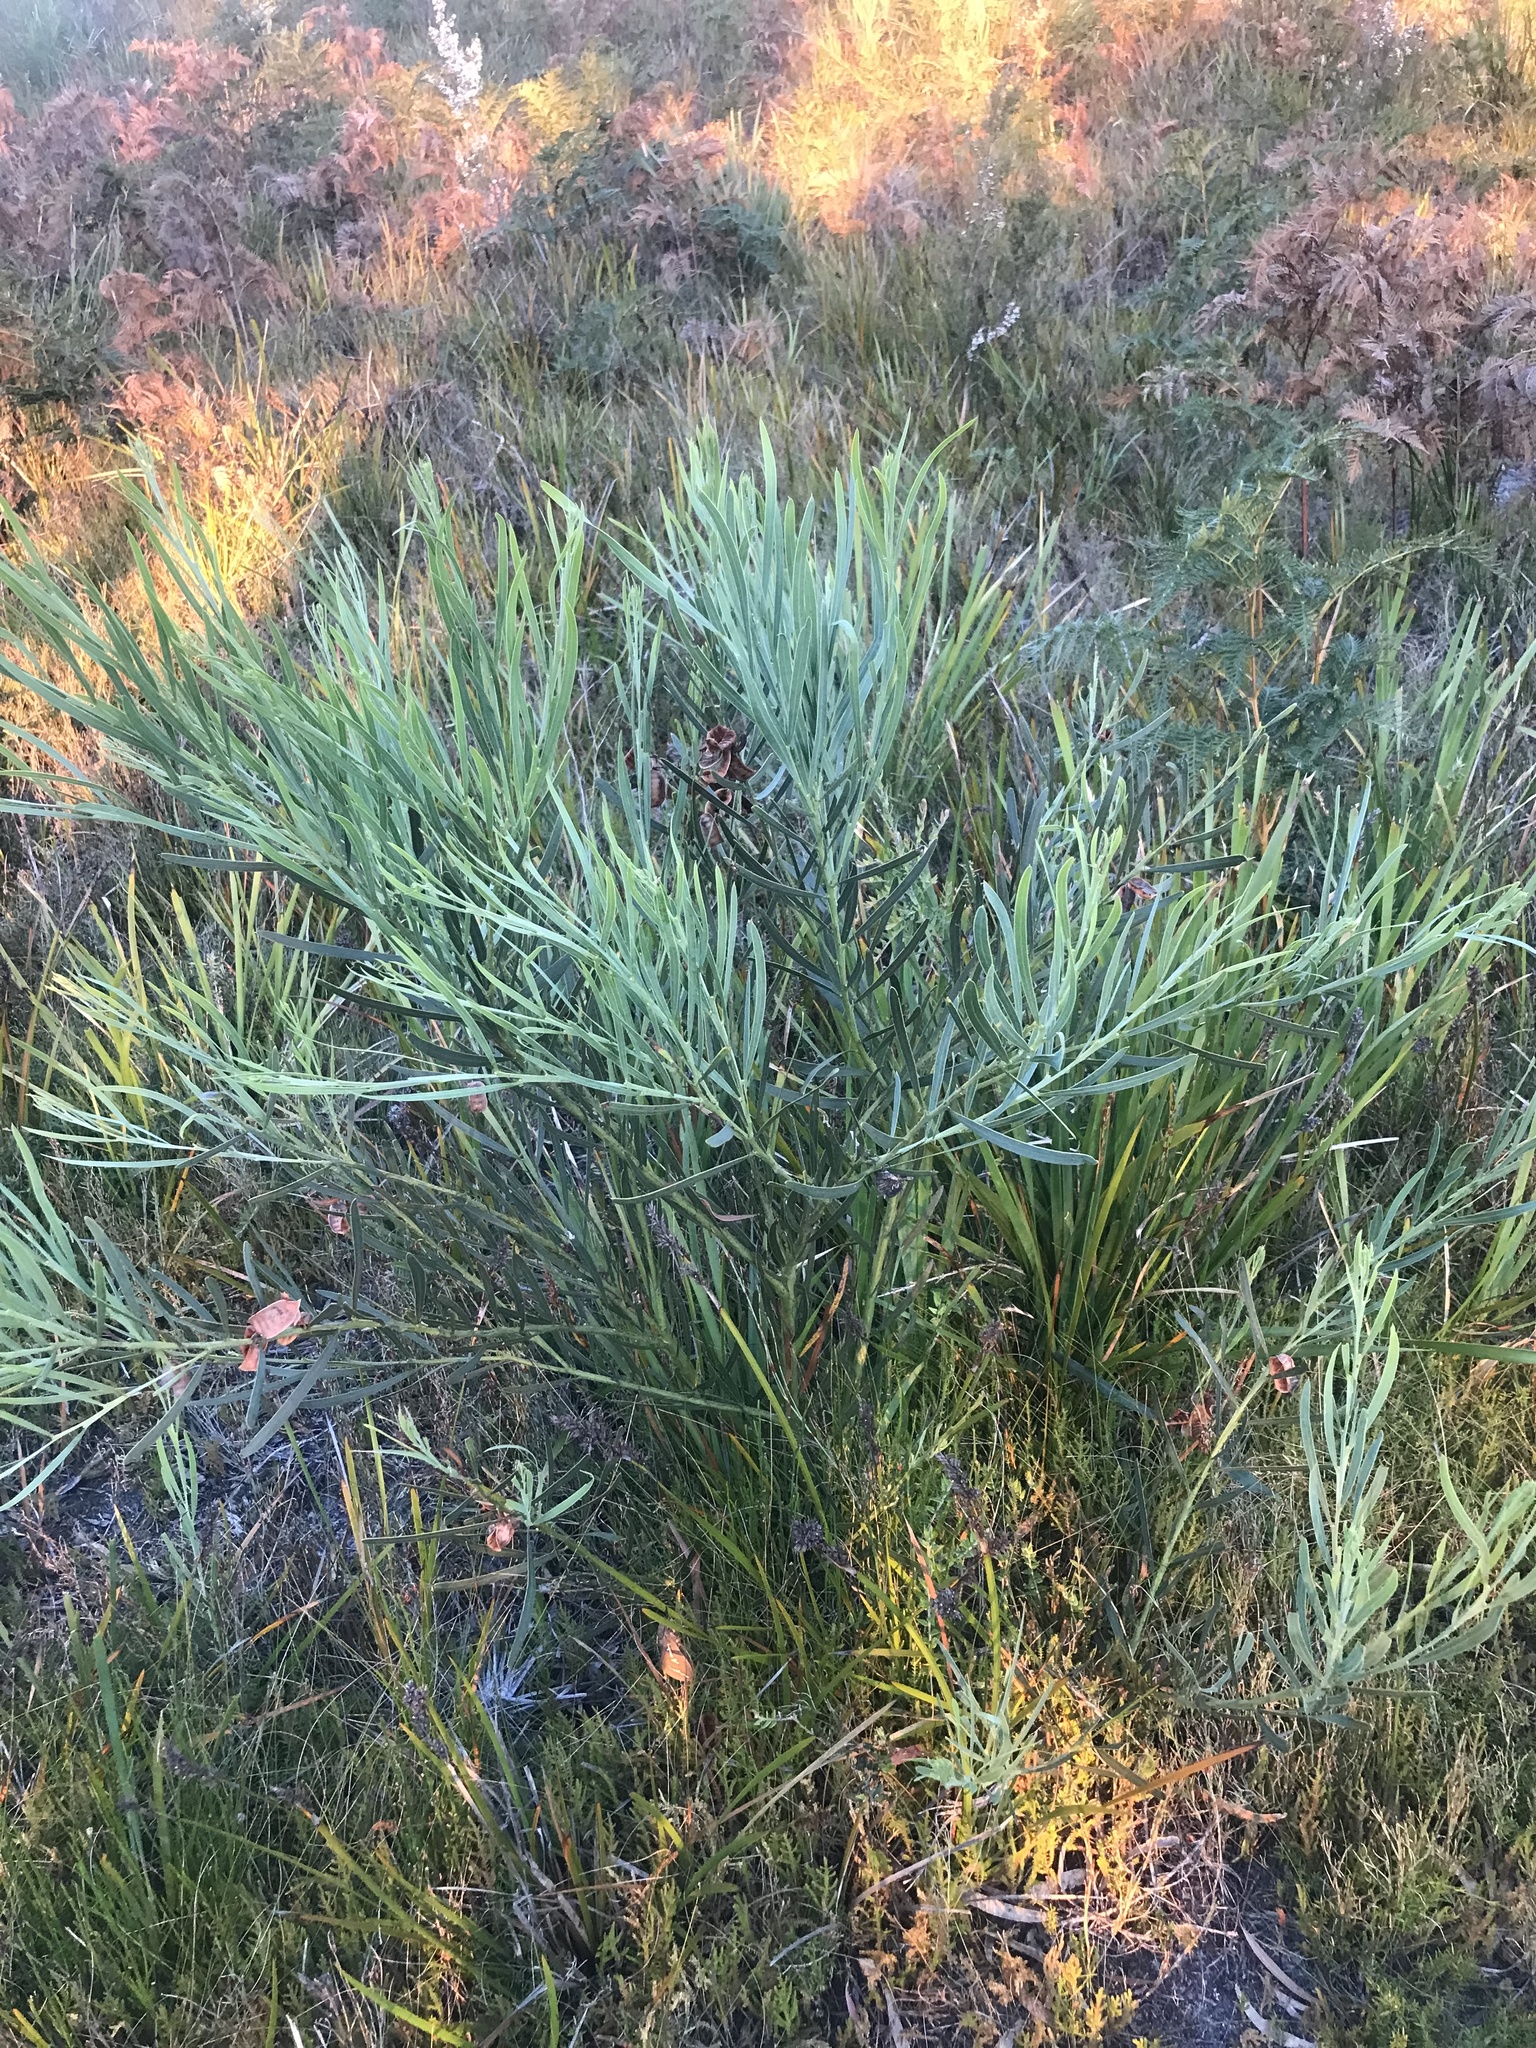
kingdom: Plantae
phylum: Tracheophyta
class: Magnoliopsida
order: Fabales
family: Fabaceae
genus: Acacia
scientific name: Acacia suaveolens
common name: Sweet acacia
